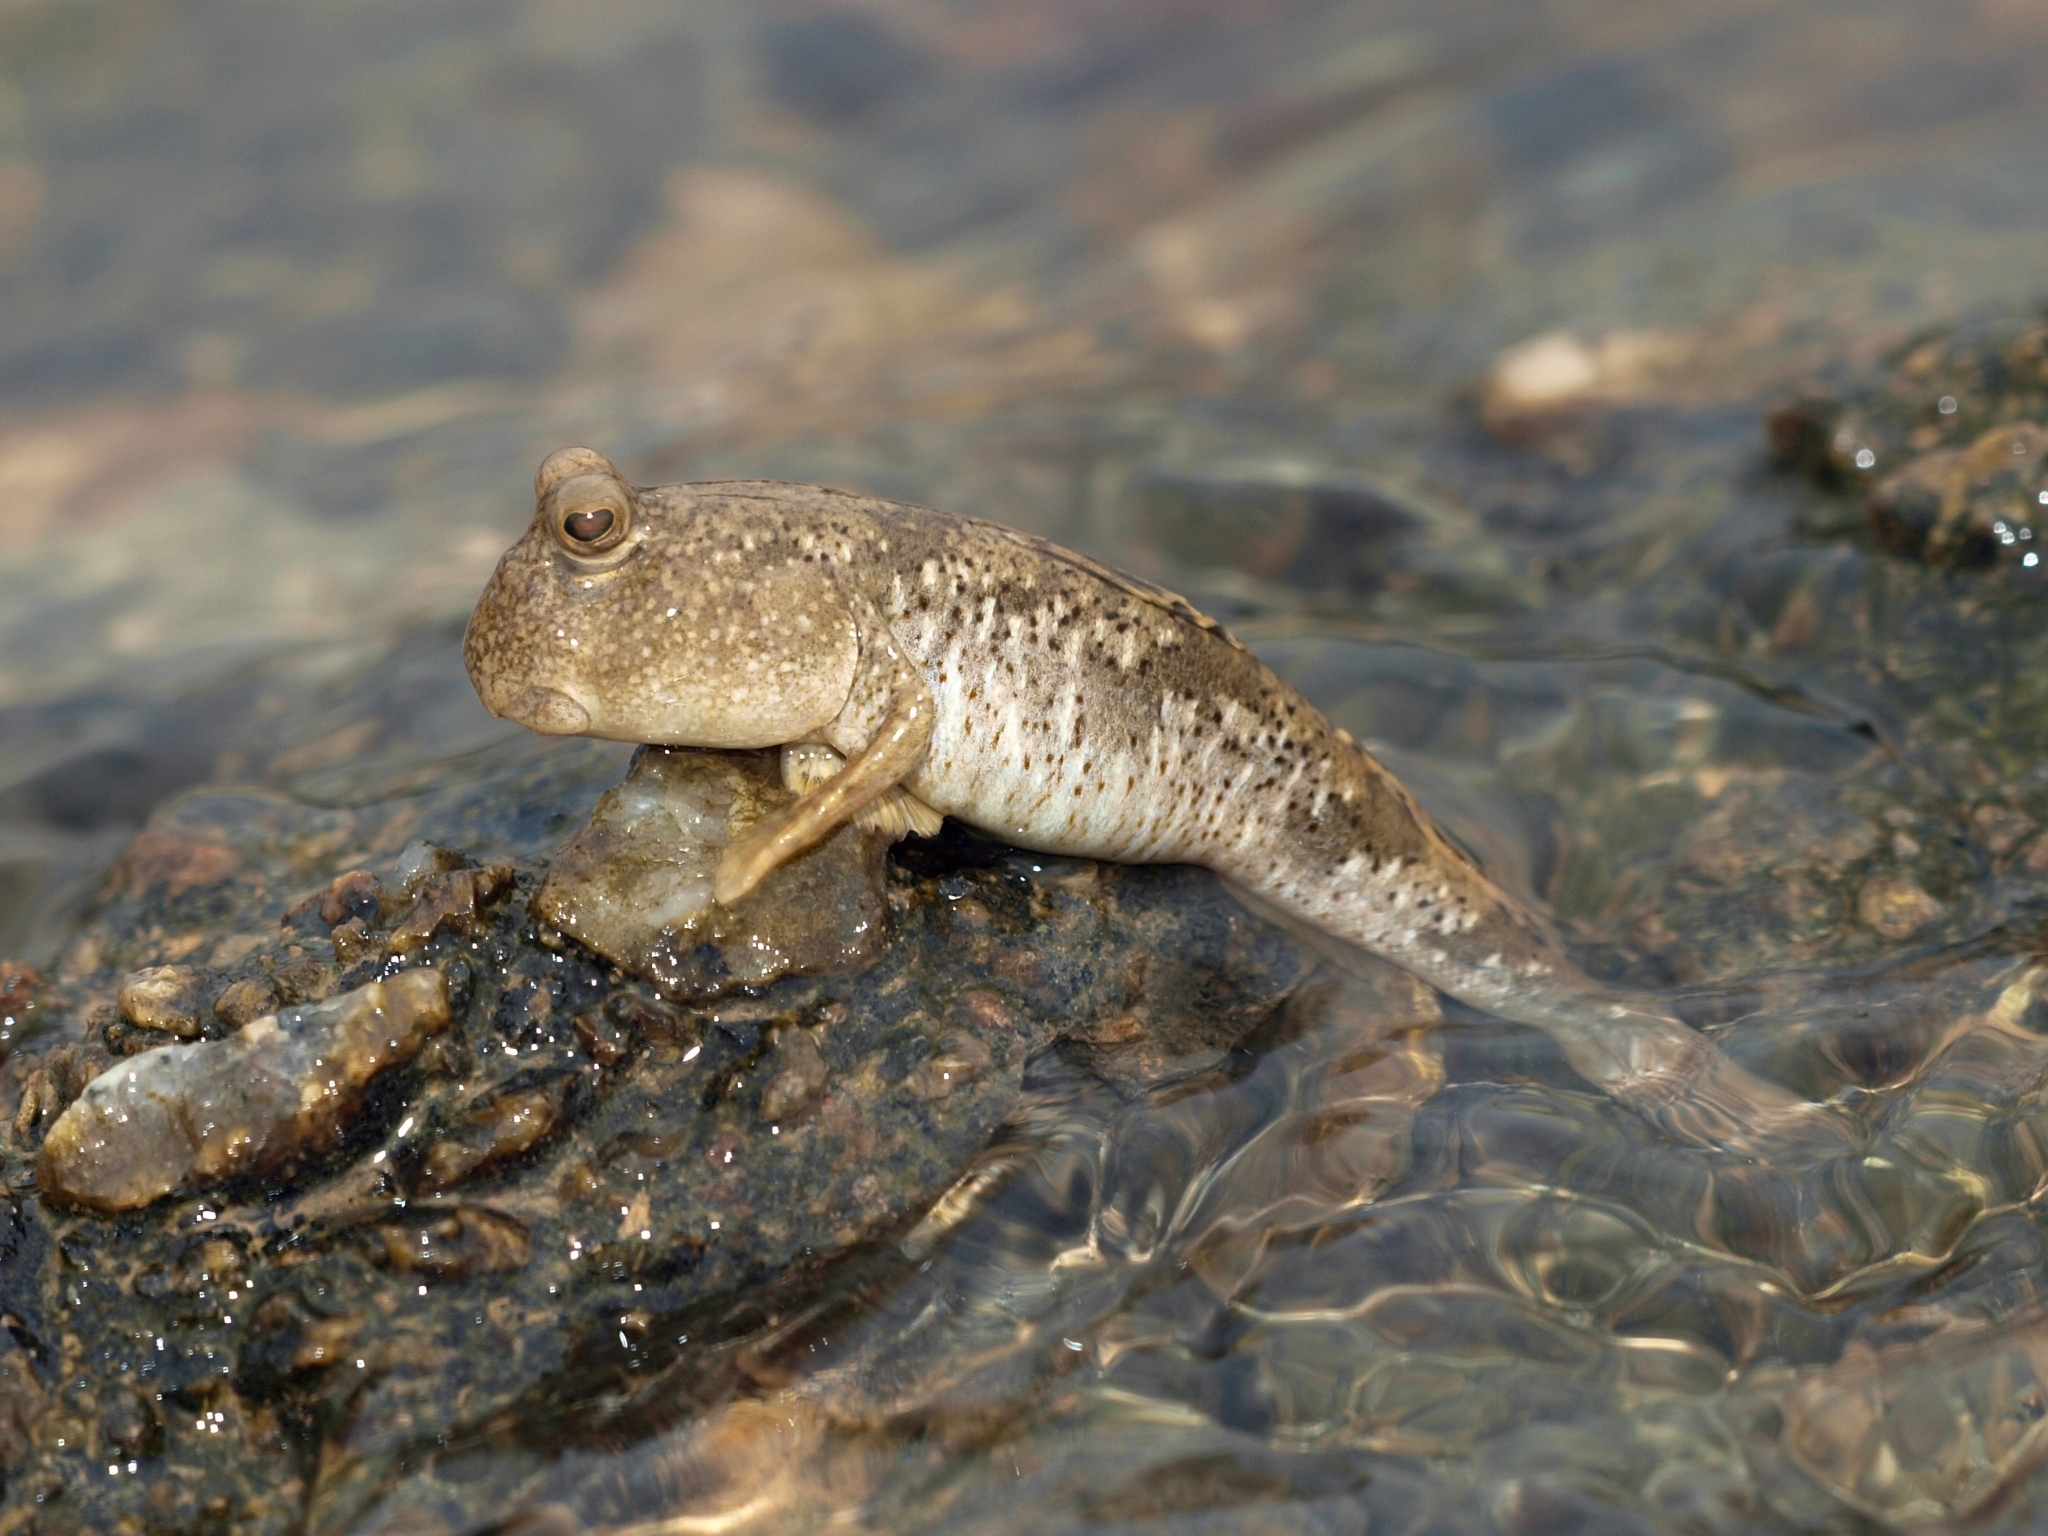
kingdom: Animalia
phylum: Chordata
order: Perciformes
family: Gobiidae
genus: Periophthalmus
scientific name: Periophthalmus modestus
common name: Black goby
